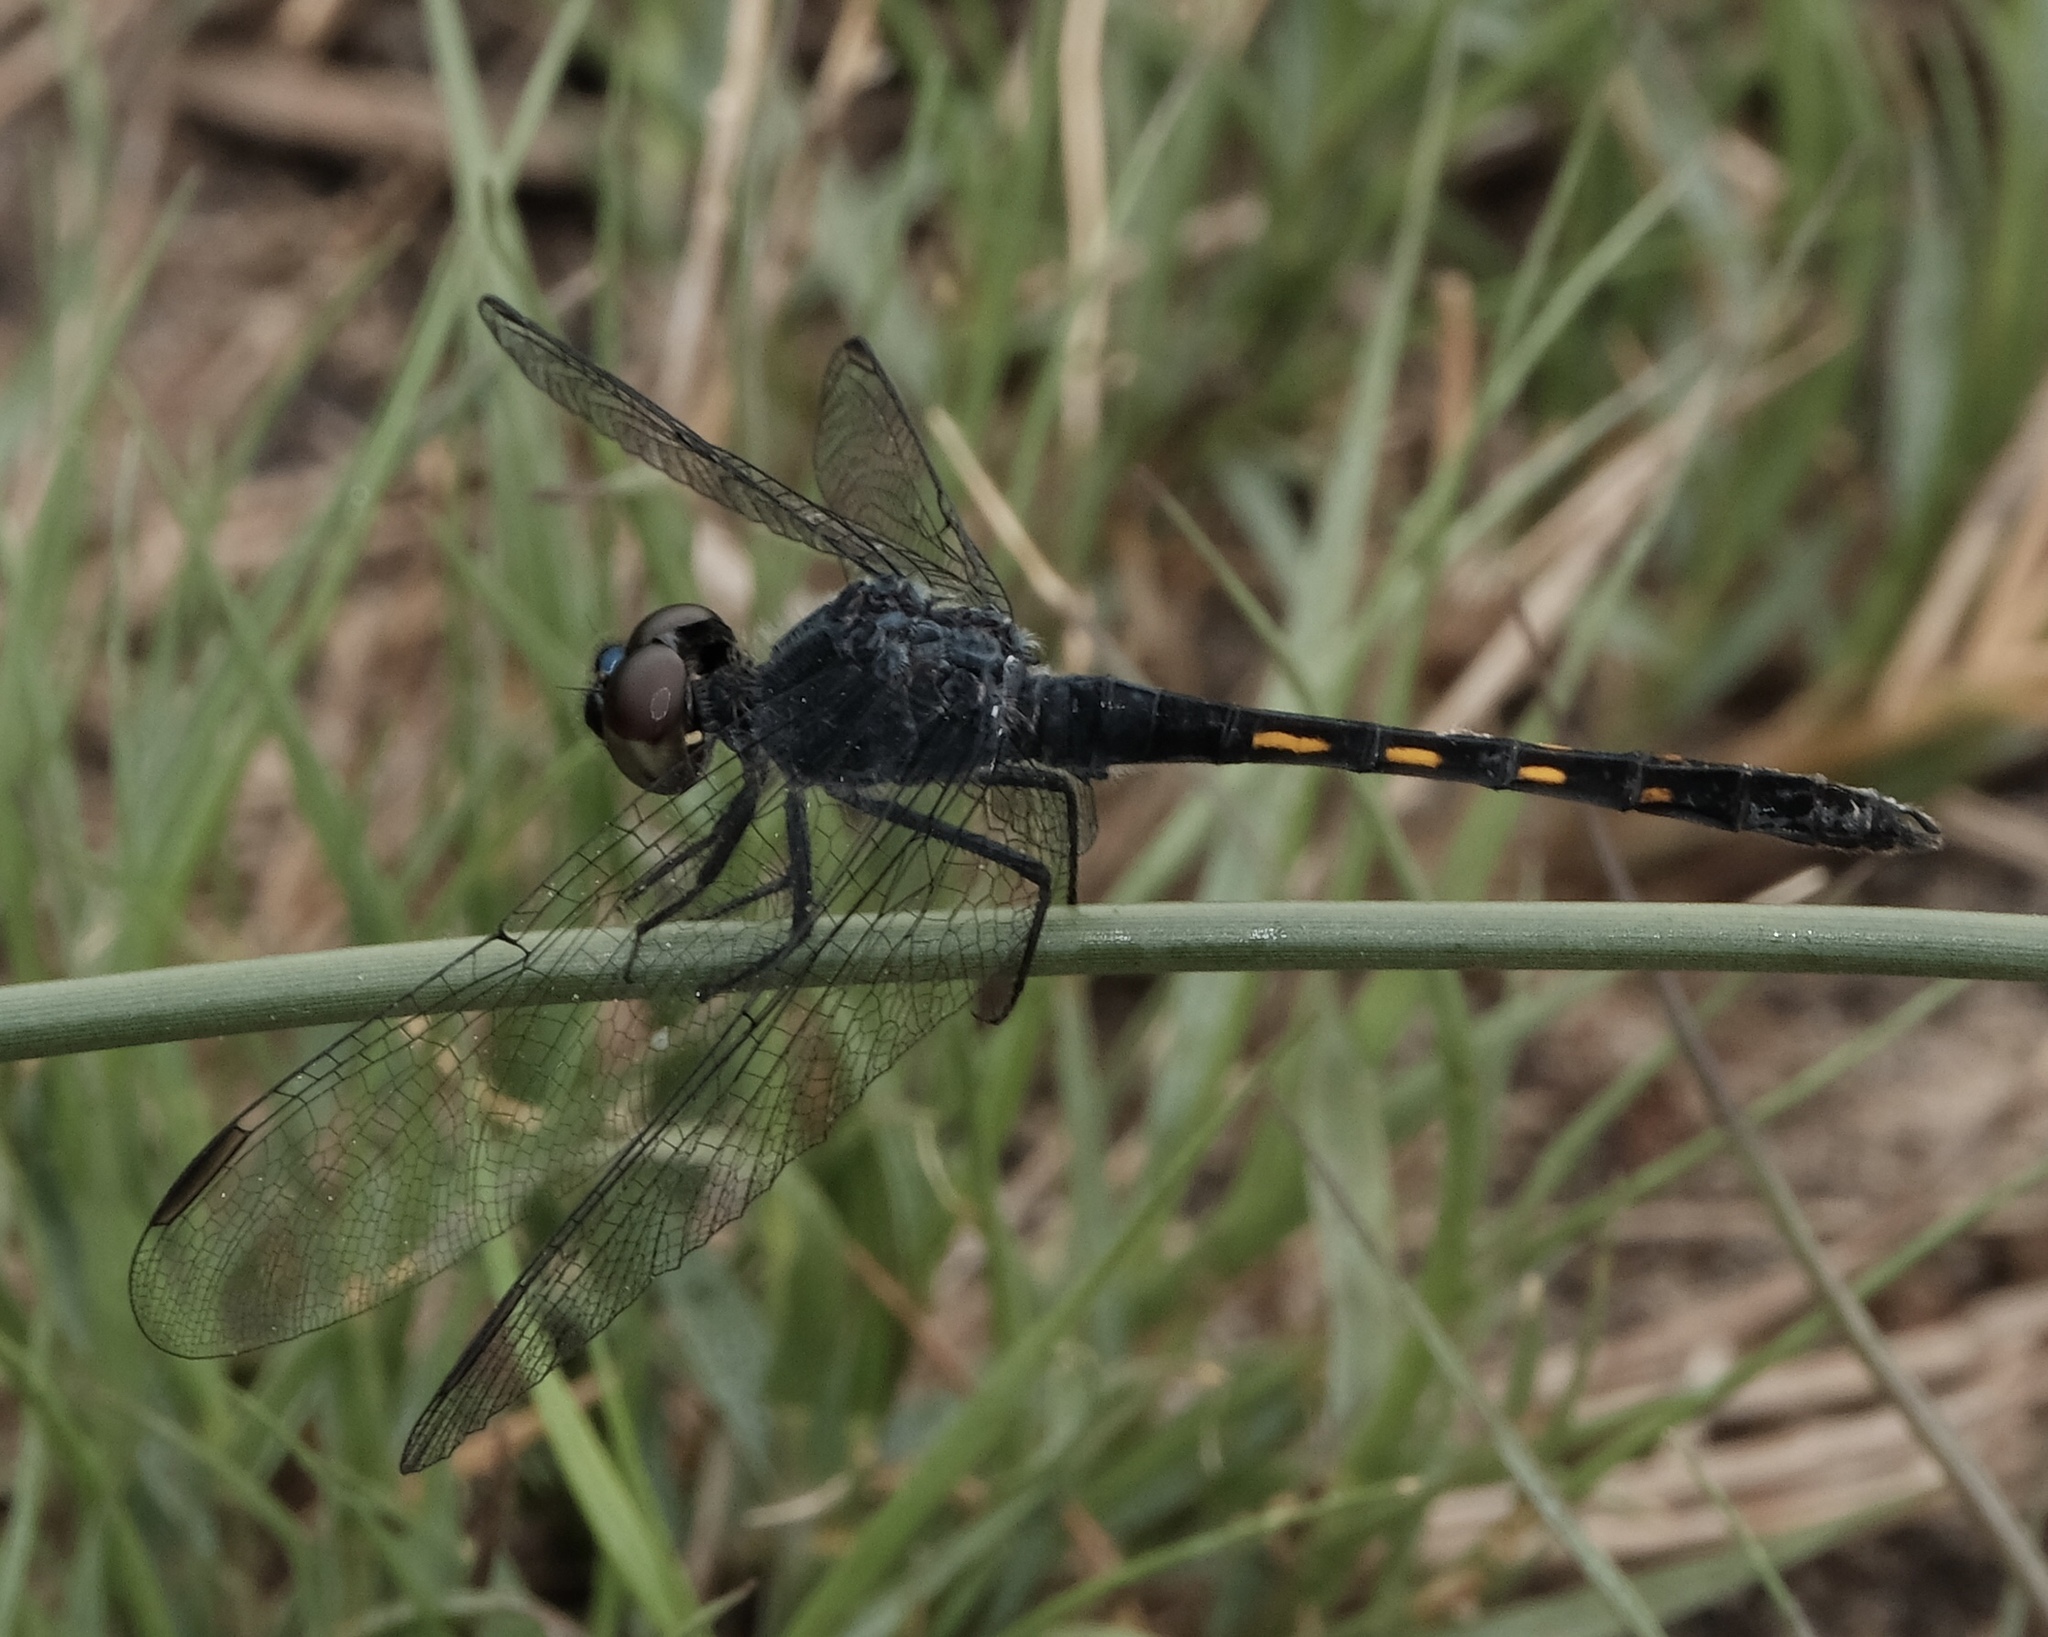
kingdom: Animalia
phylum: Arthropoda
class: Insecta
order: Odonata
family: Libellulidae
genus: Erythrodiplax
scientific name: Erythrodiplax berenice
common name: Seaside dragonlet
